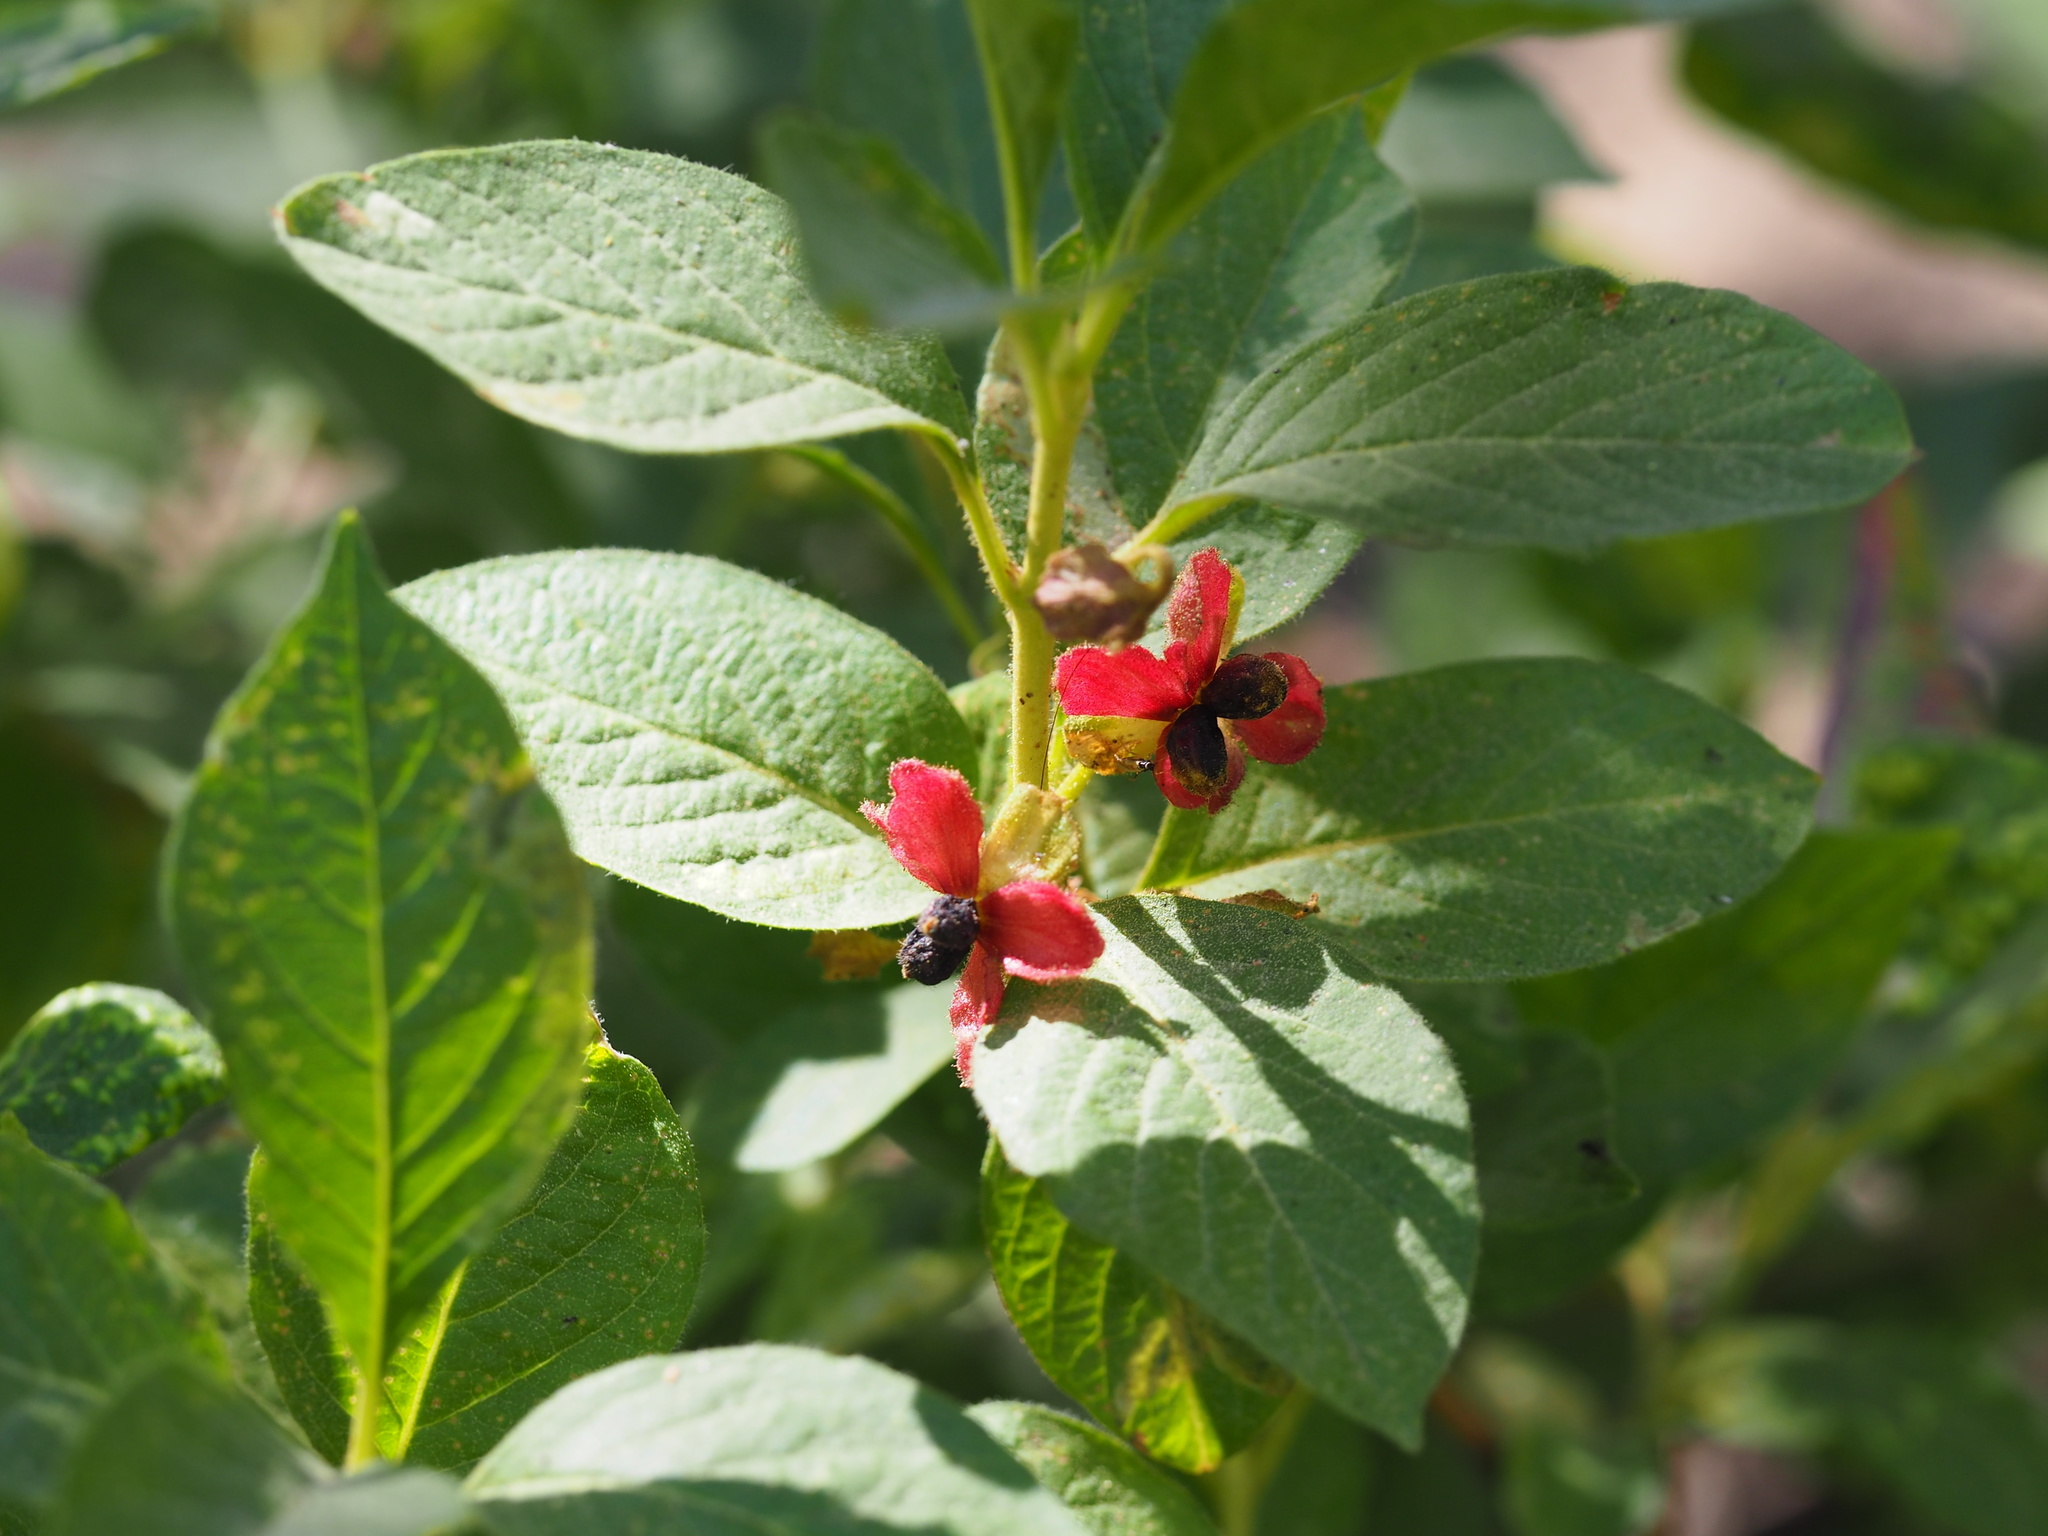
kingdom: Plantae
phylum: Tracheophyta
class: Magnoliopsida
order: Dipsacales
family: Caprifoliaceae
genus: Lonicera
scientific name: Lonicera involucrata
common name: Californian honeysuckle
